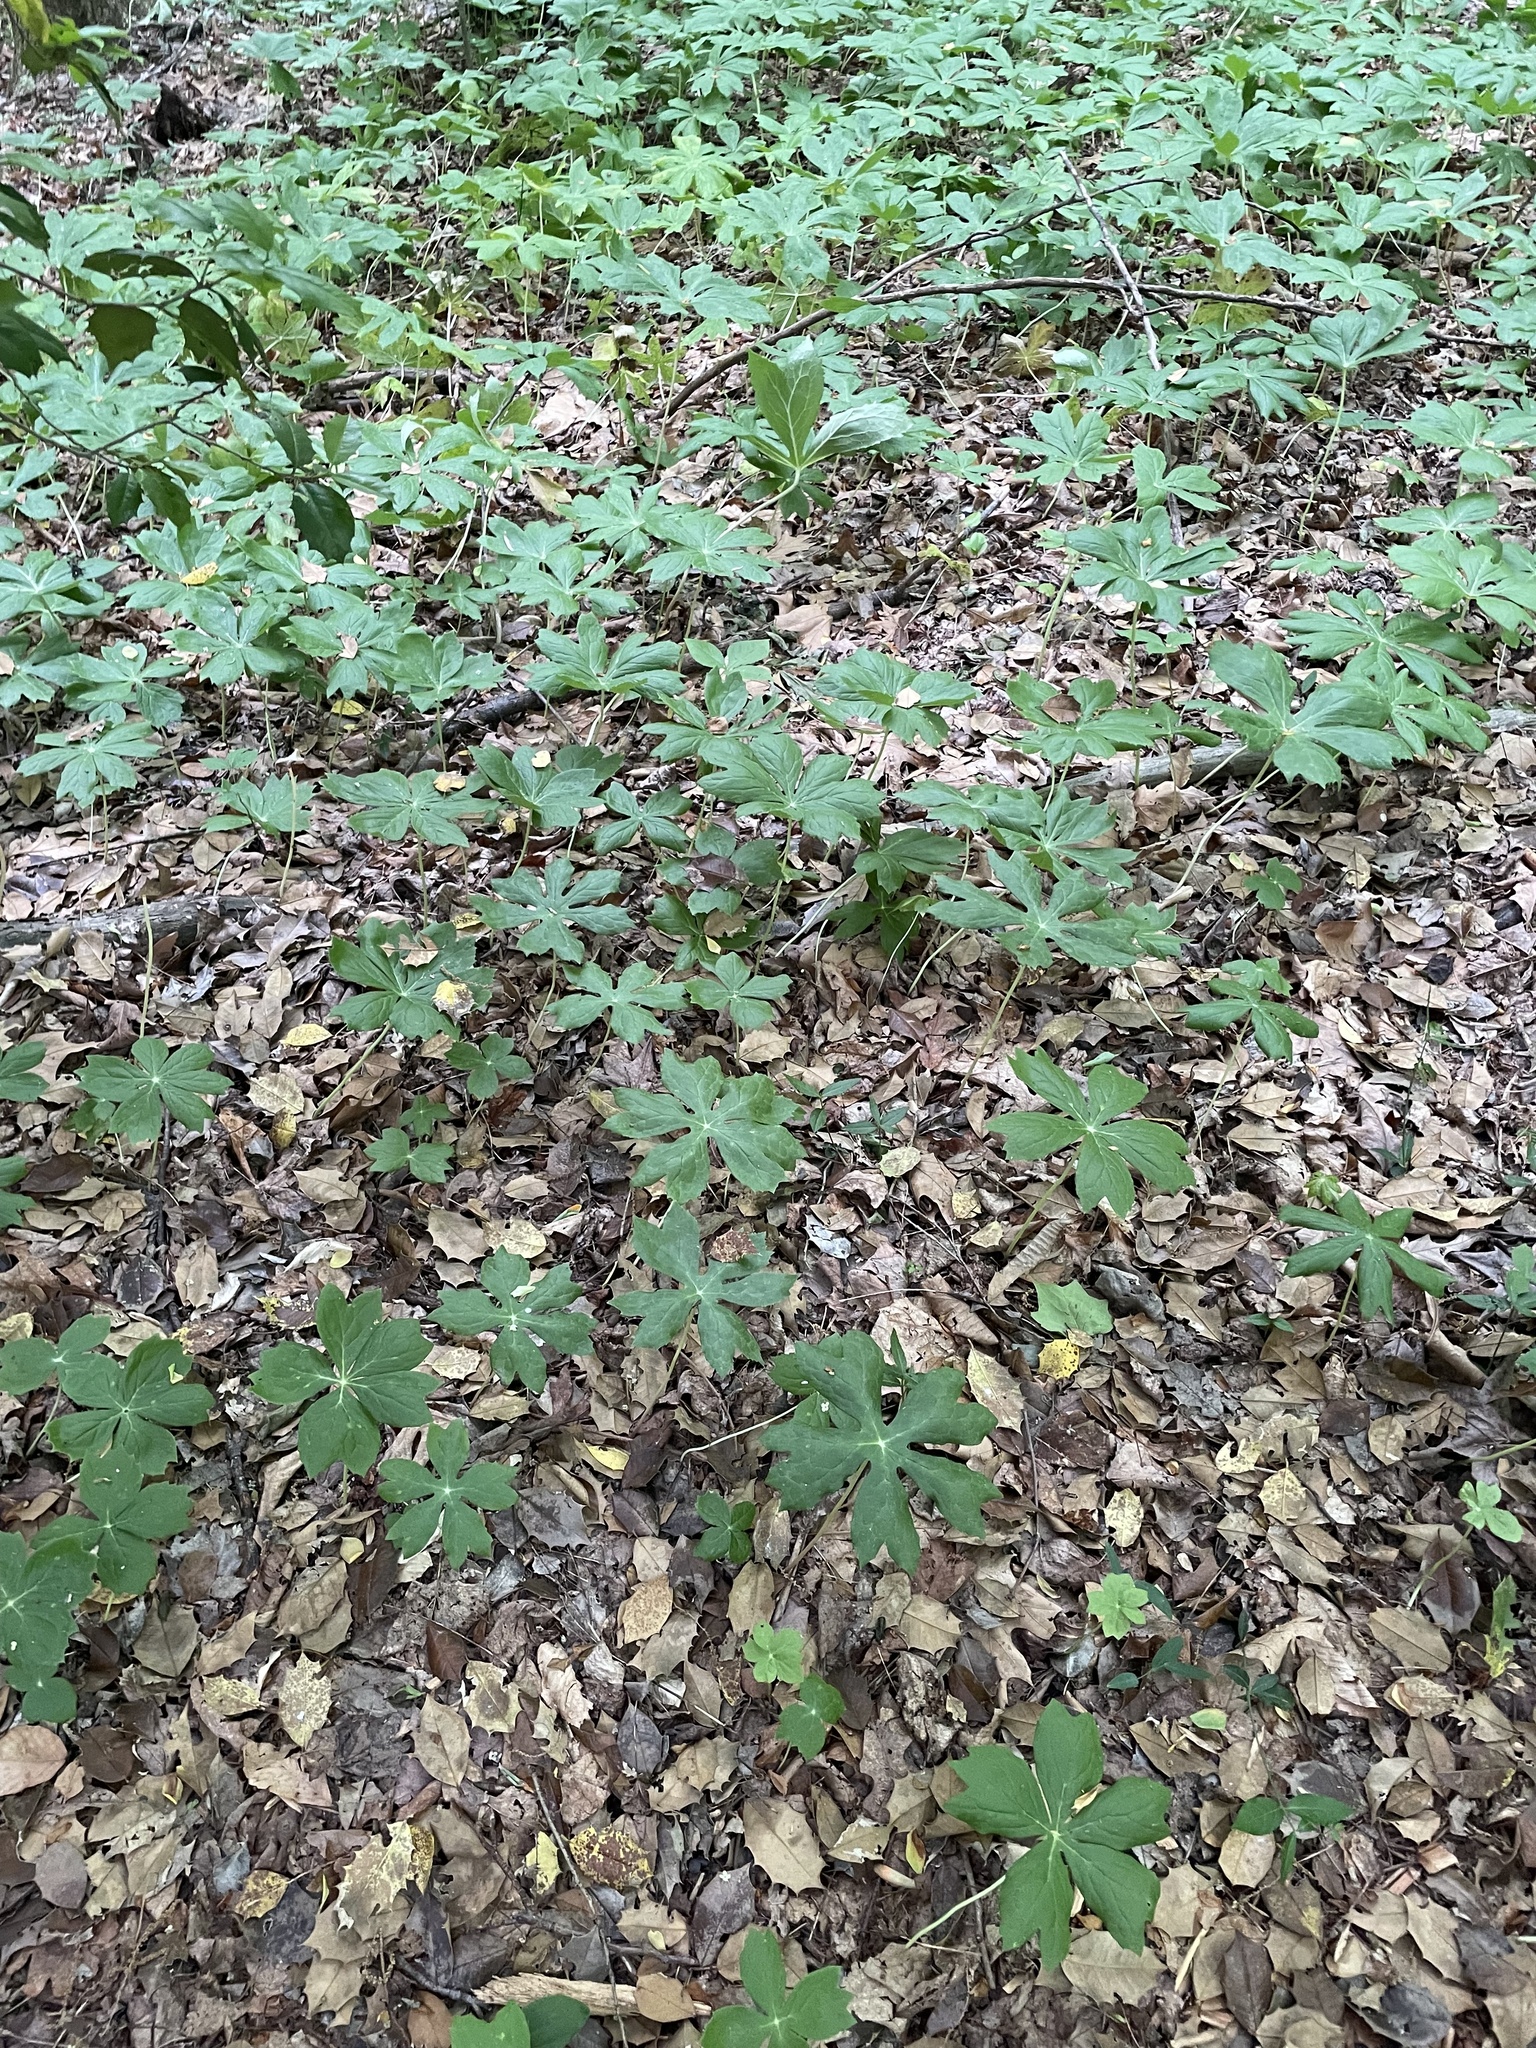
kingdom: Plantae
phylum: Tracheophyta
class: Magnoliopsida
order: Ranunculales
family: Berberidaceae
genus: Podophyllum
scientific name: Podophyllum peltatum
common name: Wild mandrake
